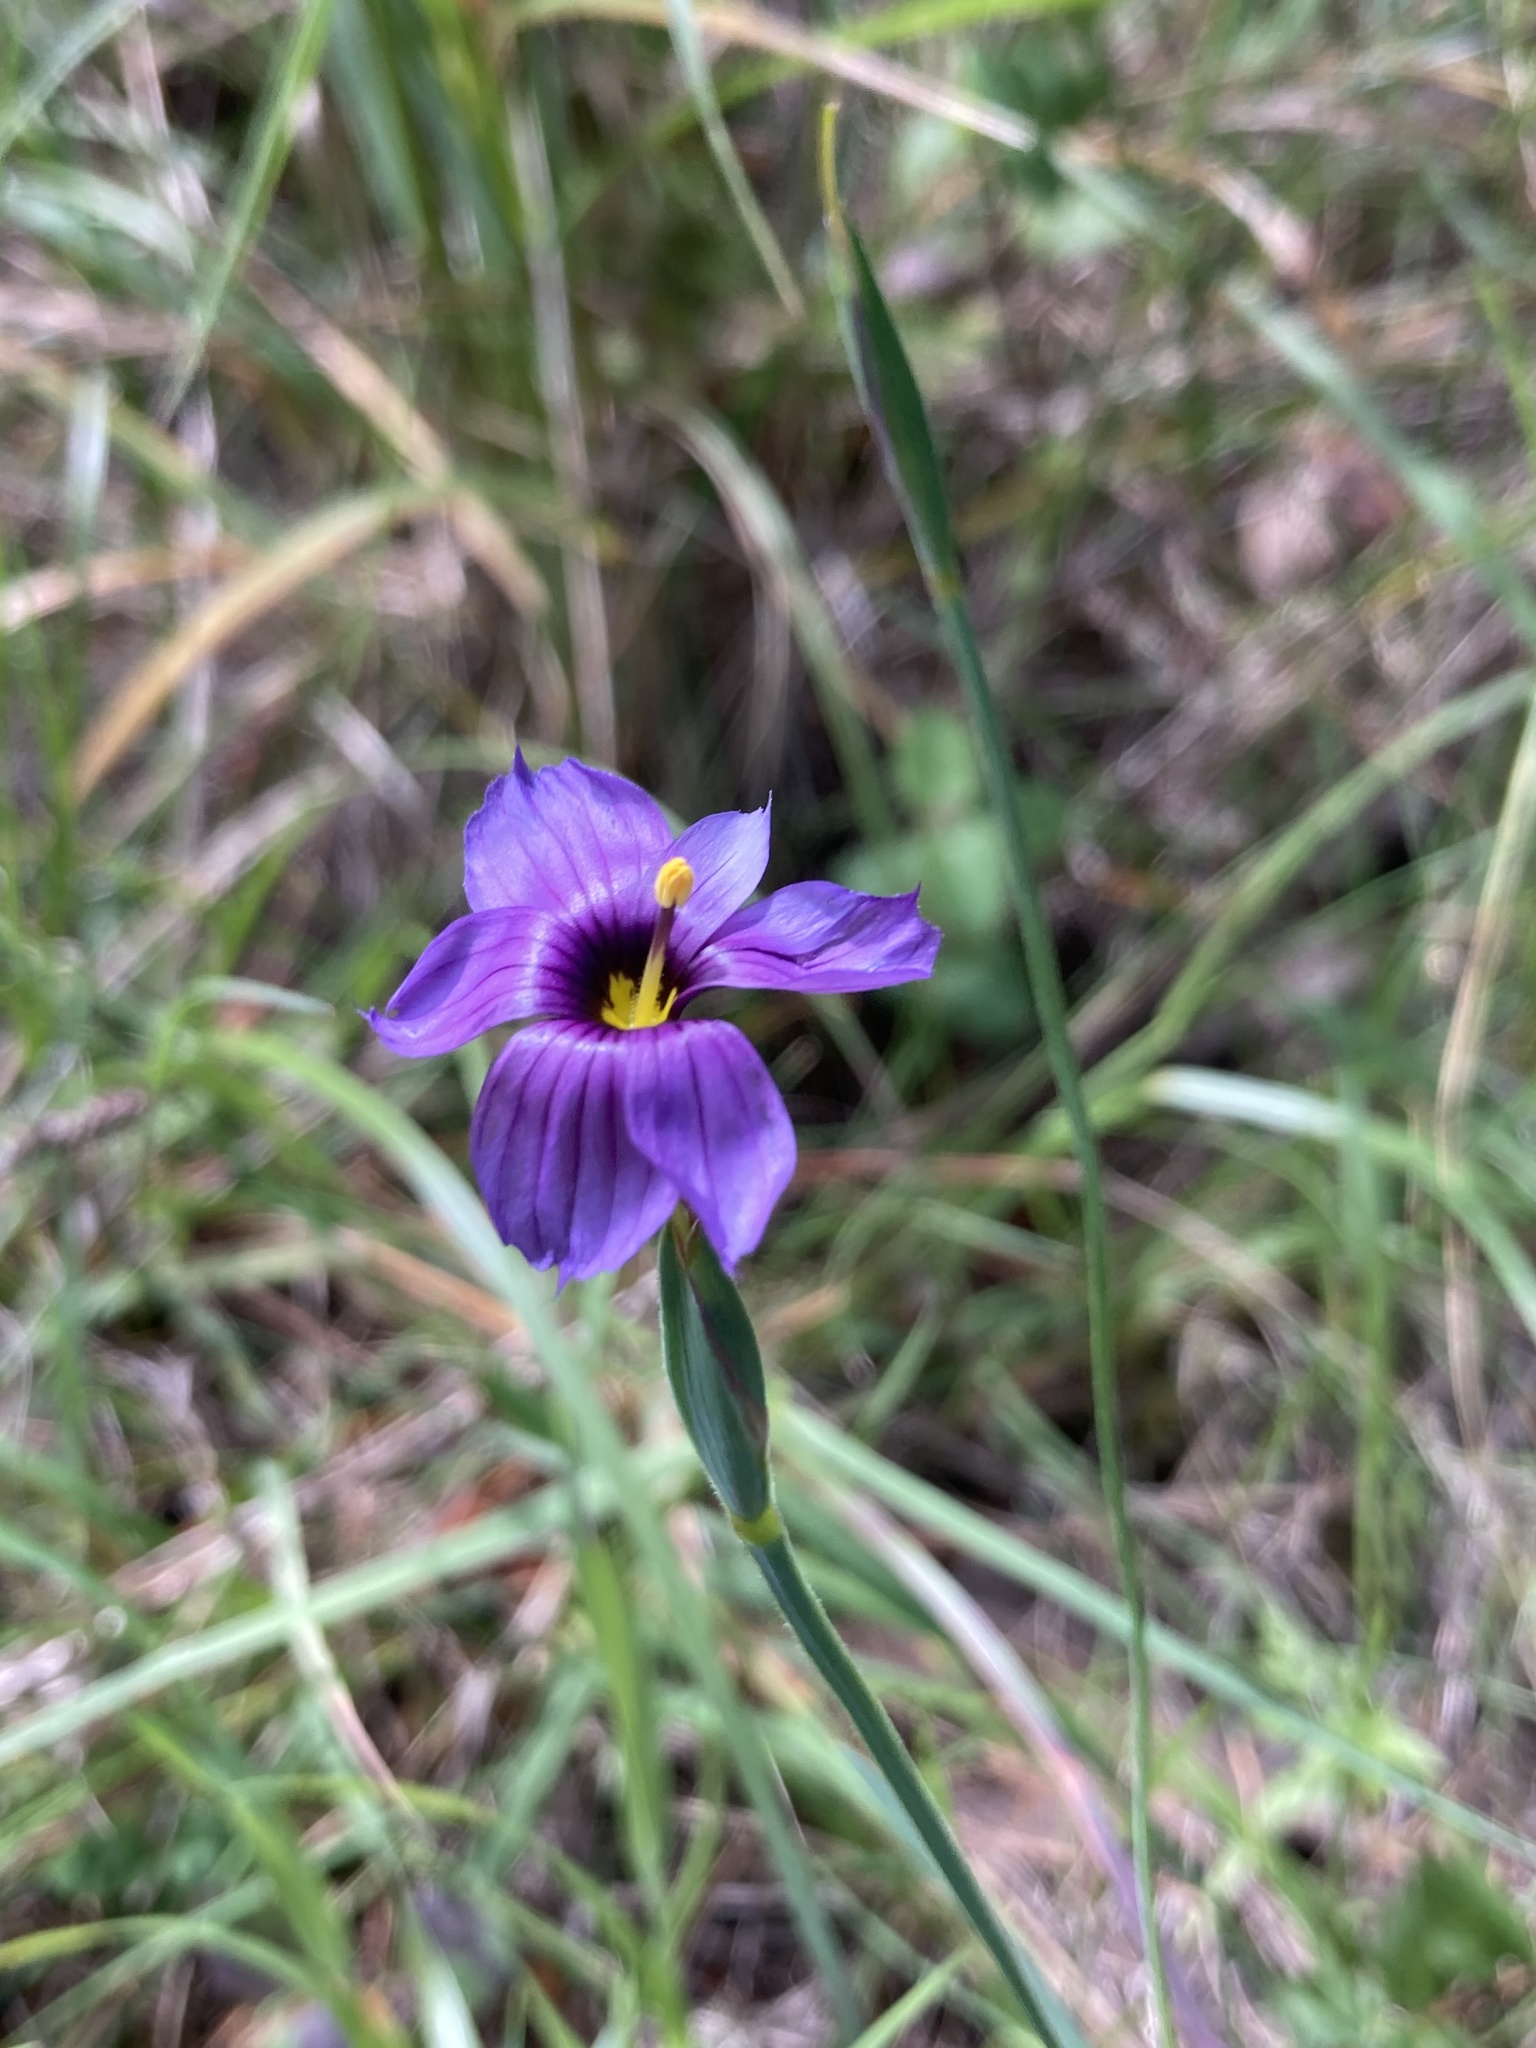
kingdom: Plantae
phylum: Tracheophyta
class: Liliopsida
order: Asparagales
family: Iridaceae
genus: Sisyrinchium
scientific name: Sisyrinchium bellum
